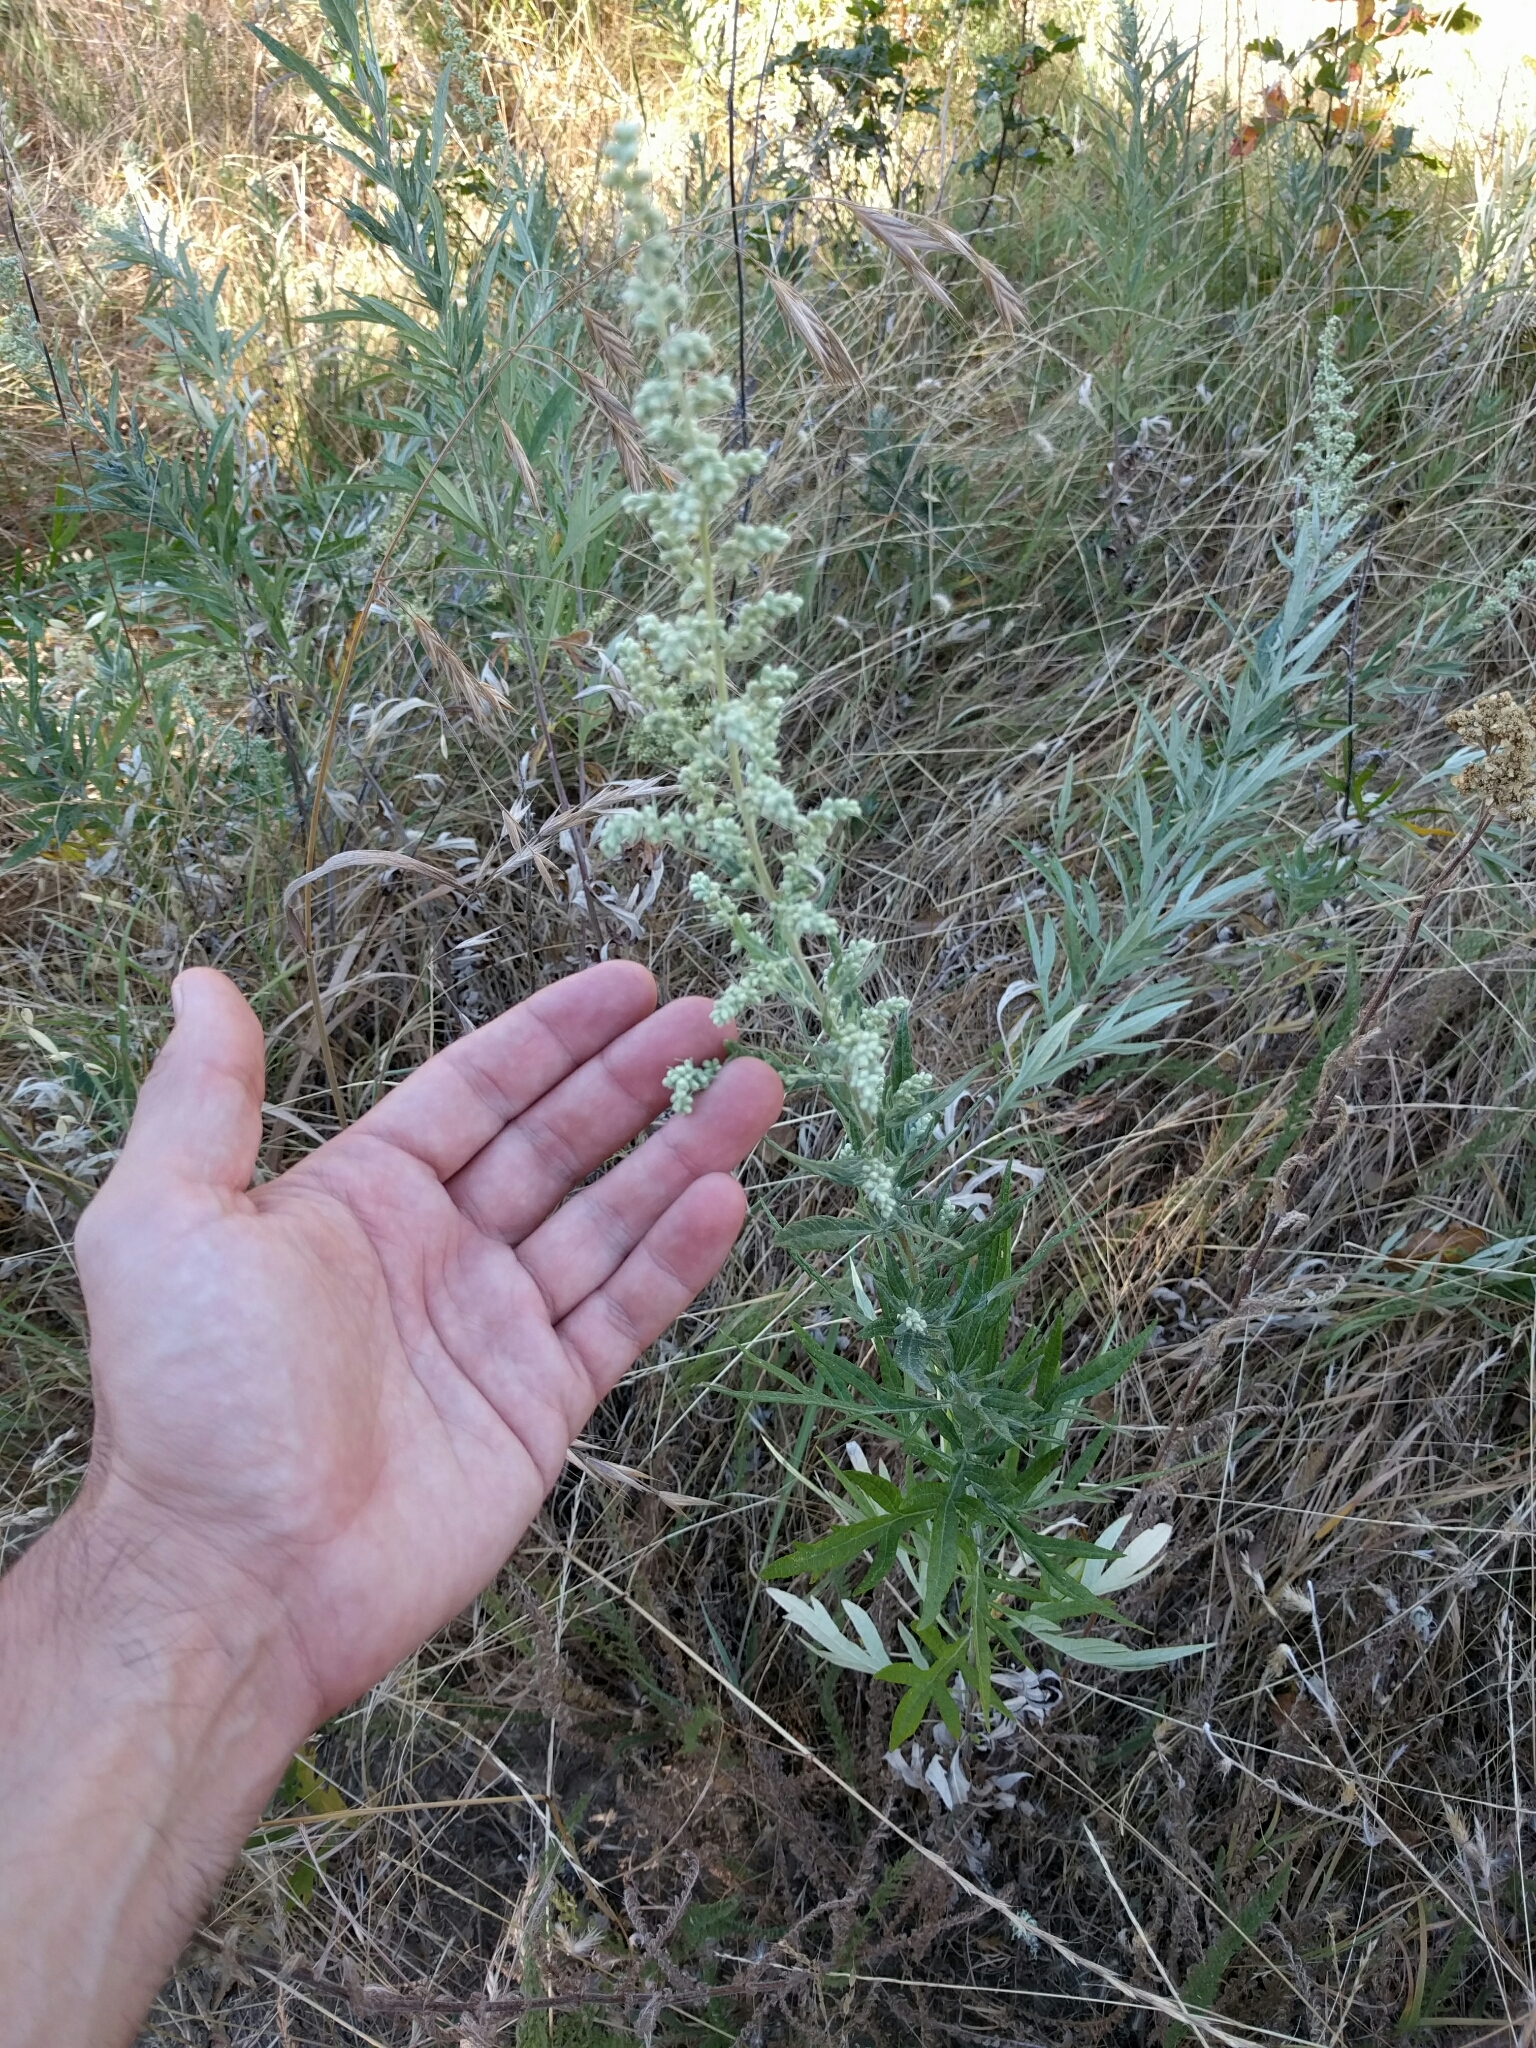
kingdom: Plantae
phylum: Tracheophyta
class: Magnoliopsida
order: Asterales
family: Asteraceae
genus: Artemisia
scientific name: Artemisia douglasiana
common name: Northwest mugwort
